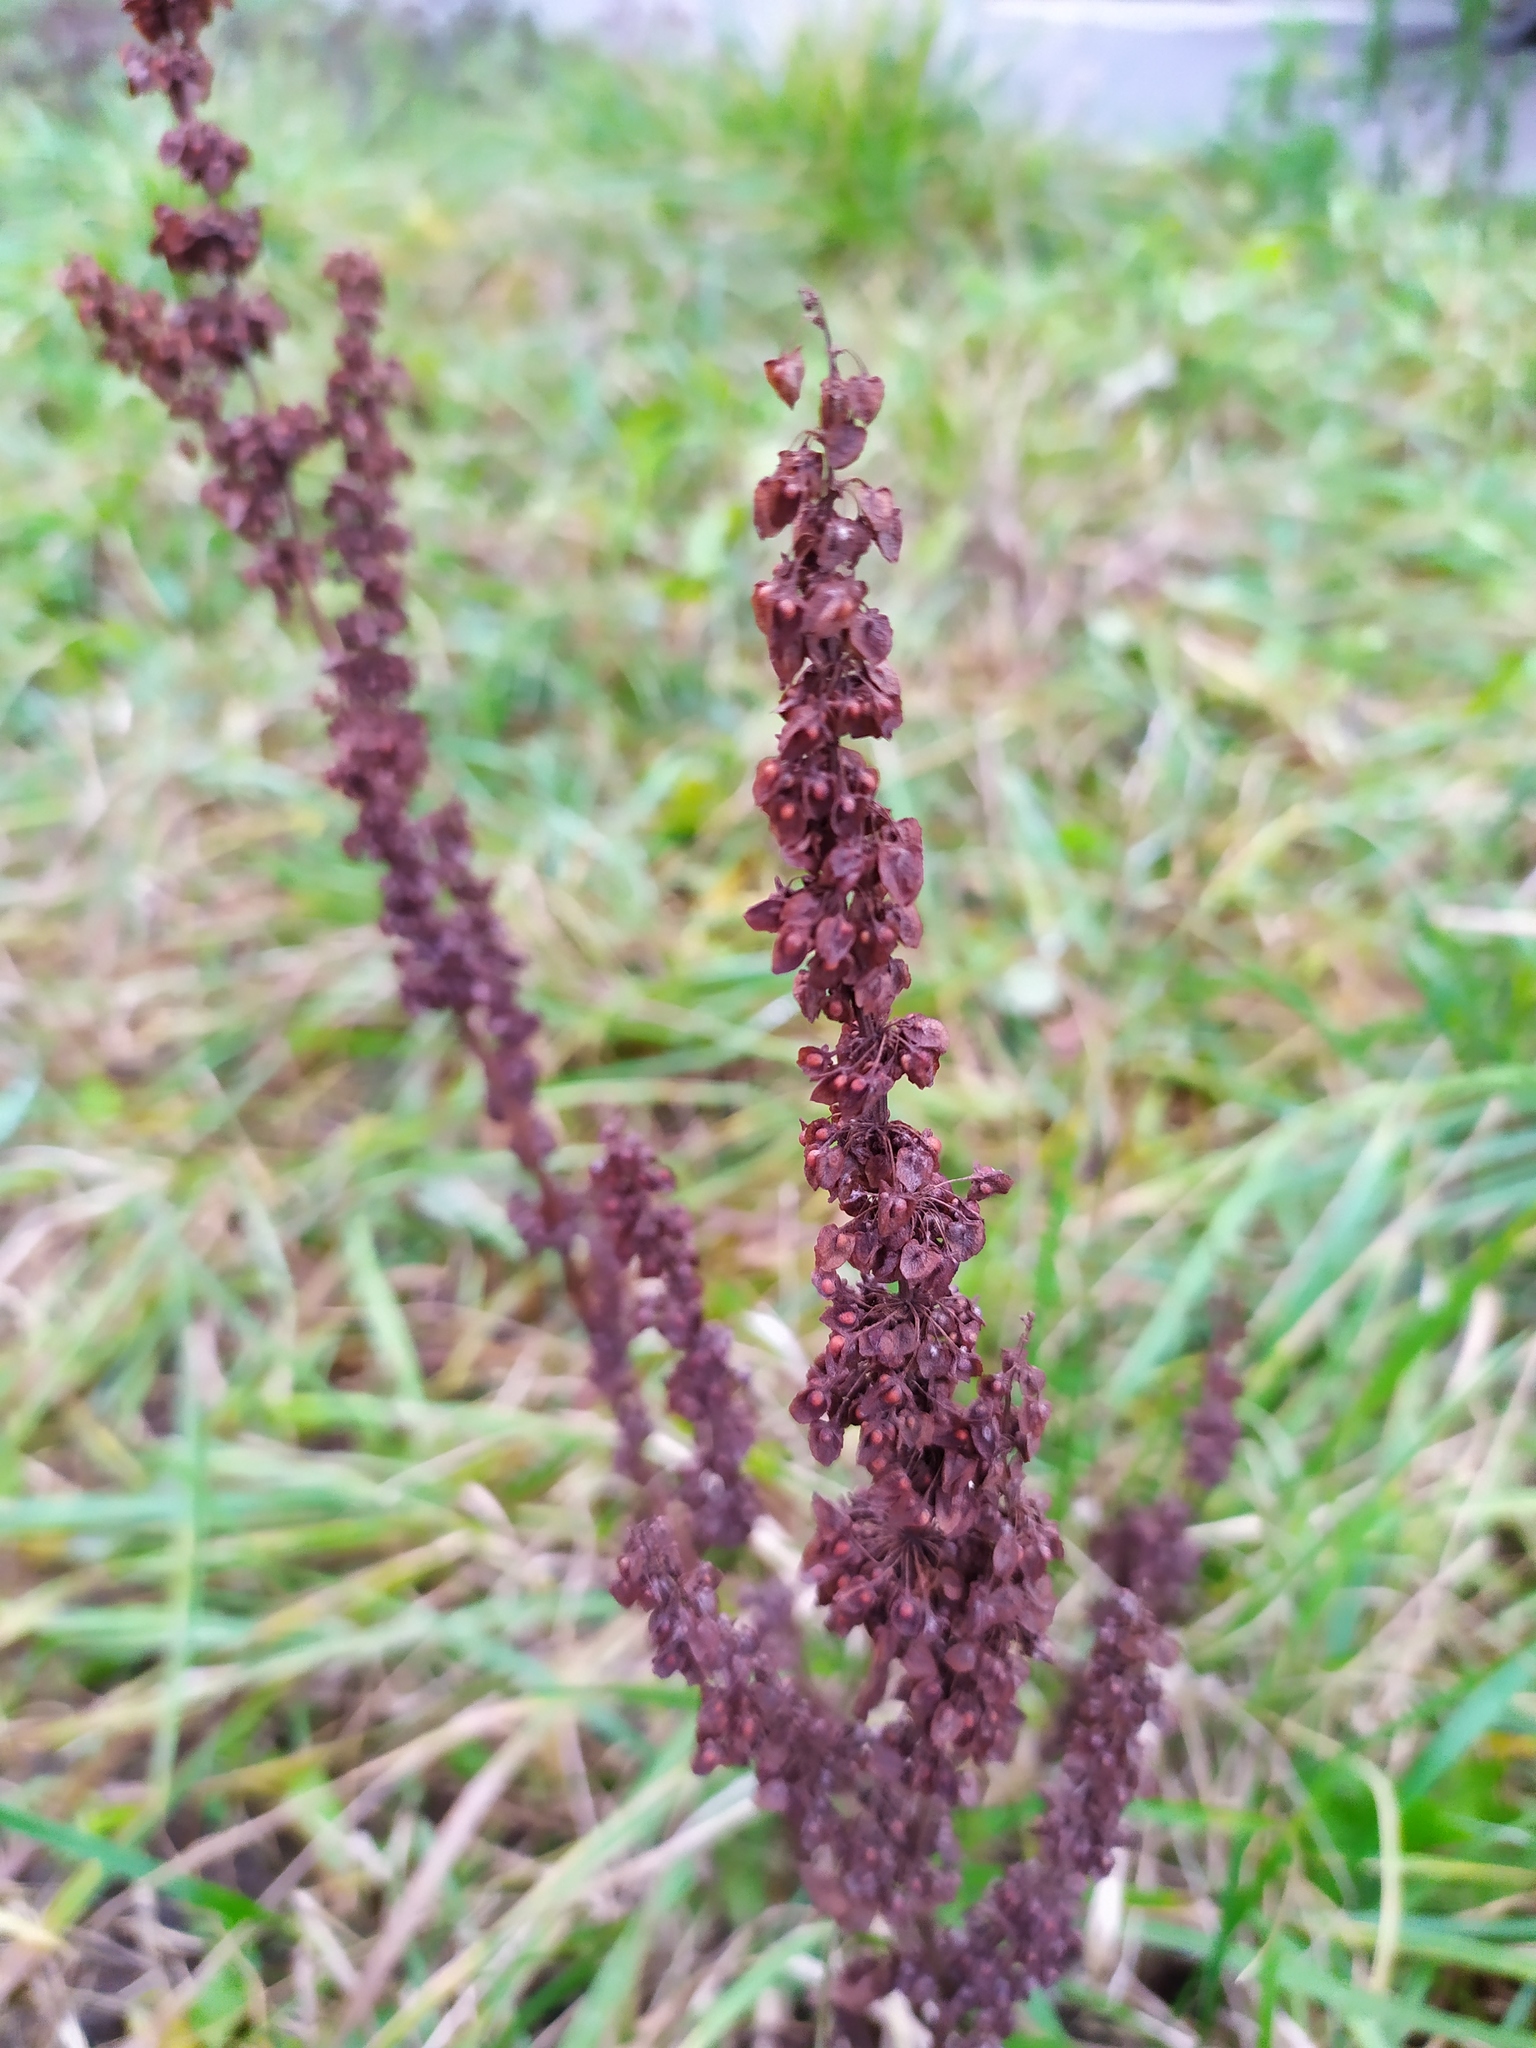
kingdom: Plantae
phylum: Tracheophyta
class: Magnoliopsida
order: Caryophyllales
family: Polygonaceae
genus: Rumex
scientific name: Rumex crispus
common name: Curled dock
